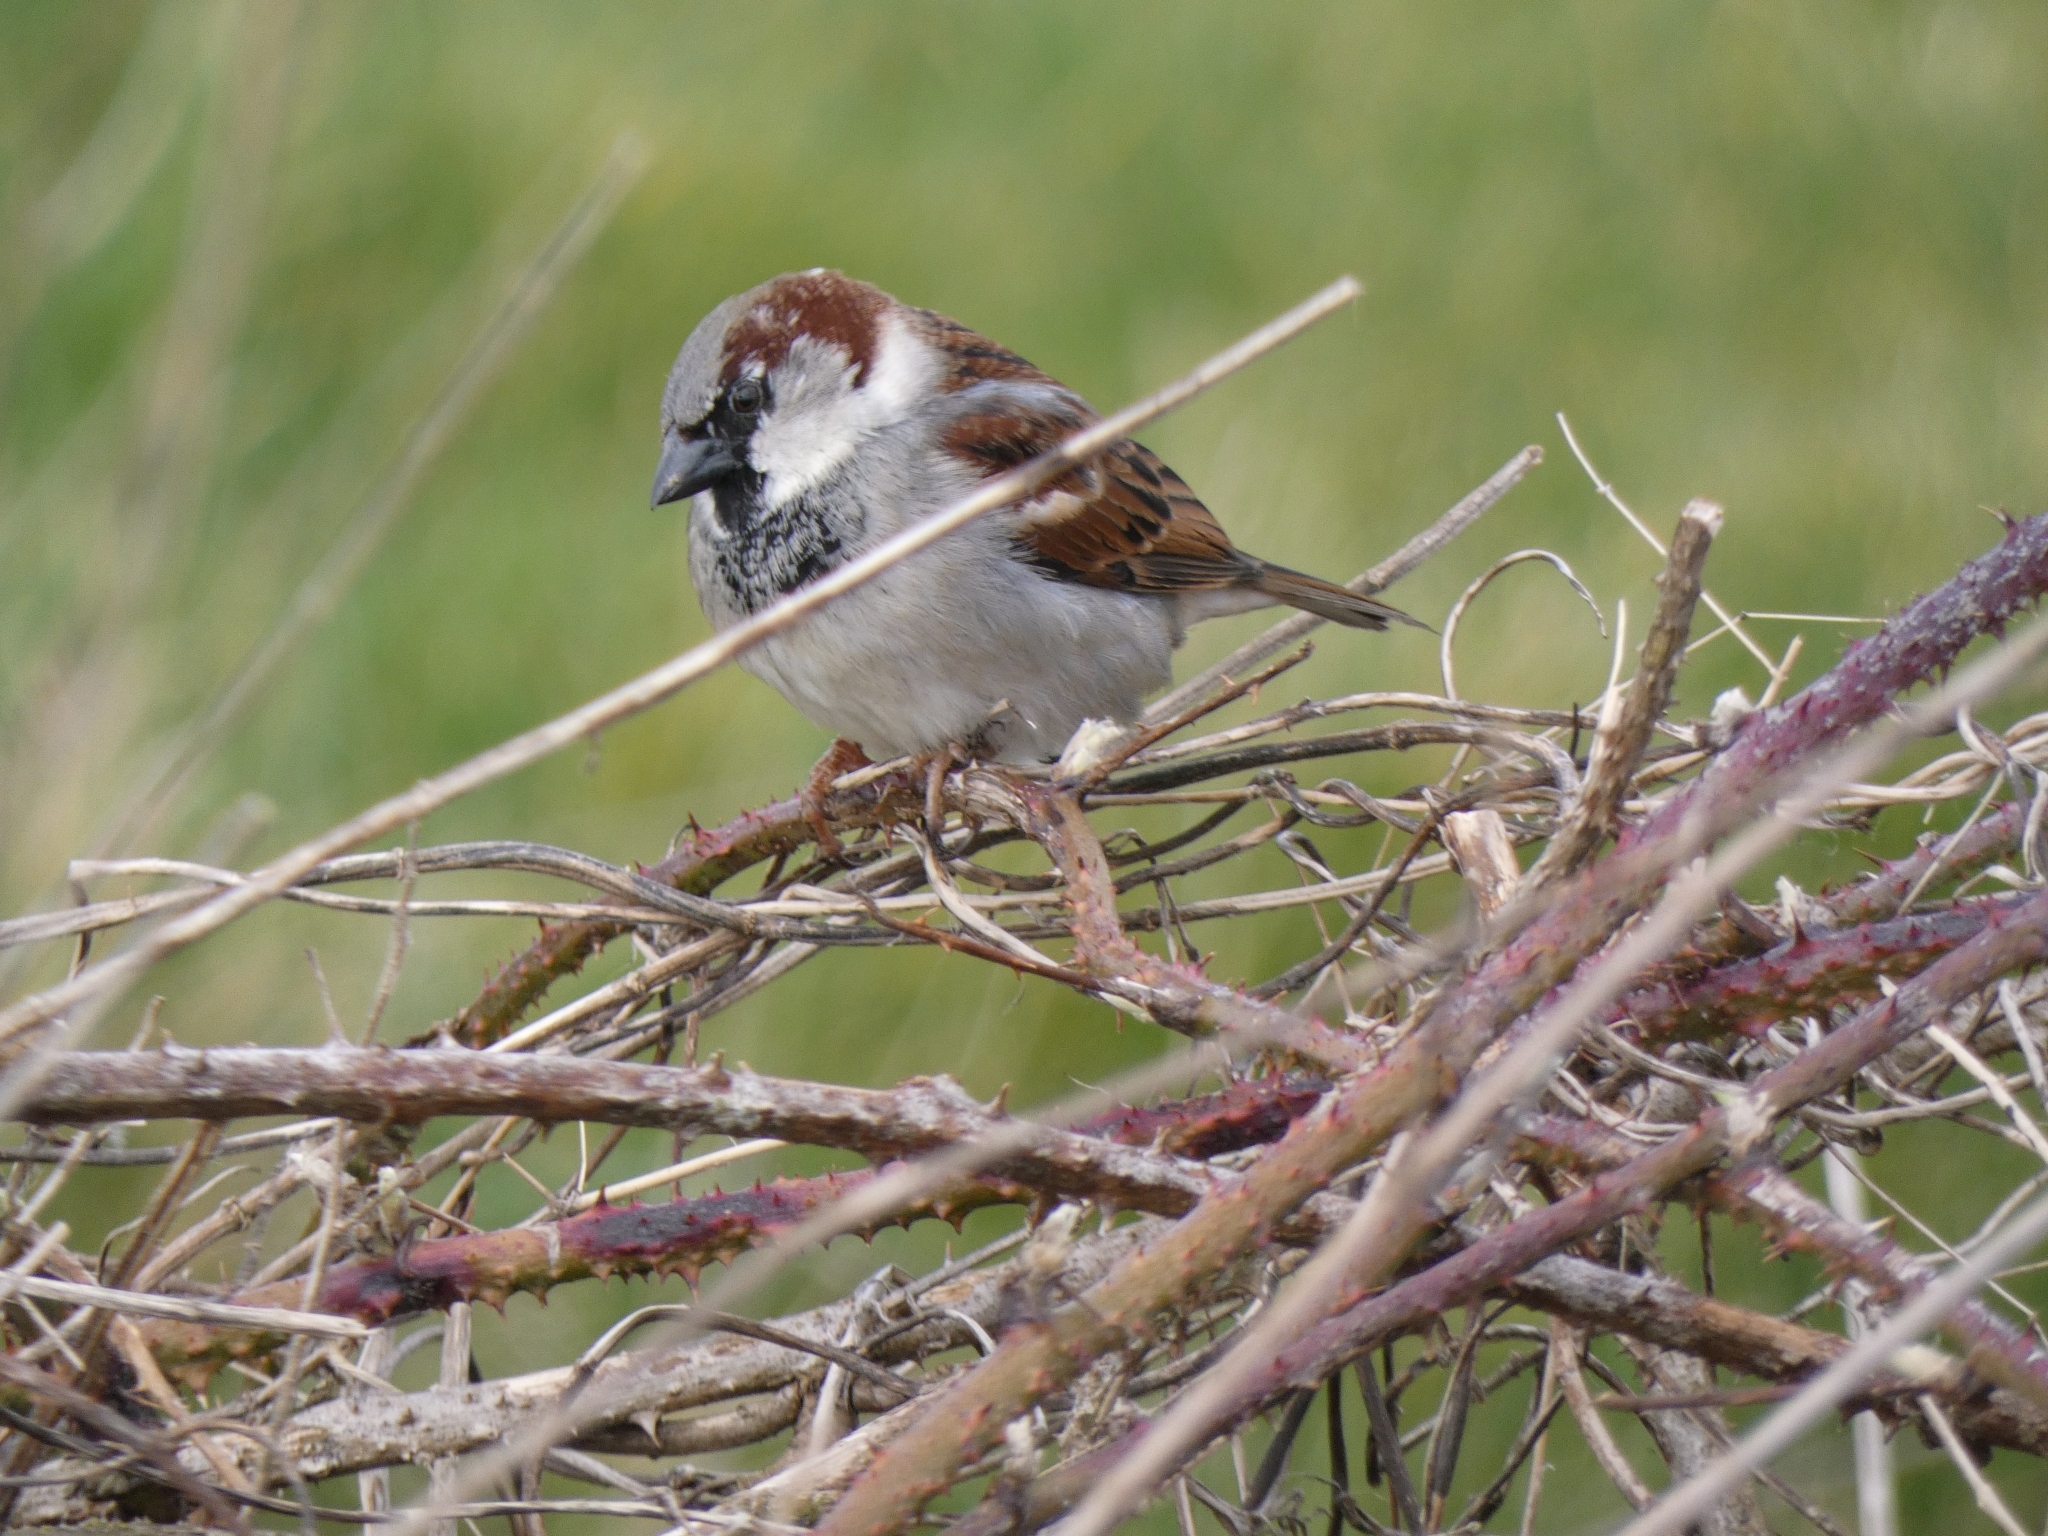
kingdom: Animalia
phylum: Chordata
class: Aves
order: Passeriformes
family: Passeridae
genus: Passer
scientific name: Passer domesticus
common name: House sparrow
